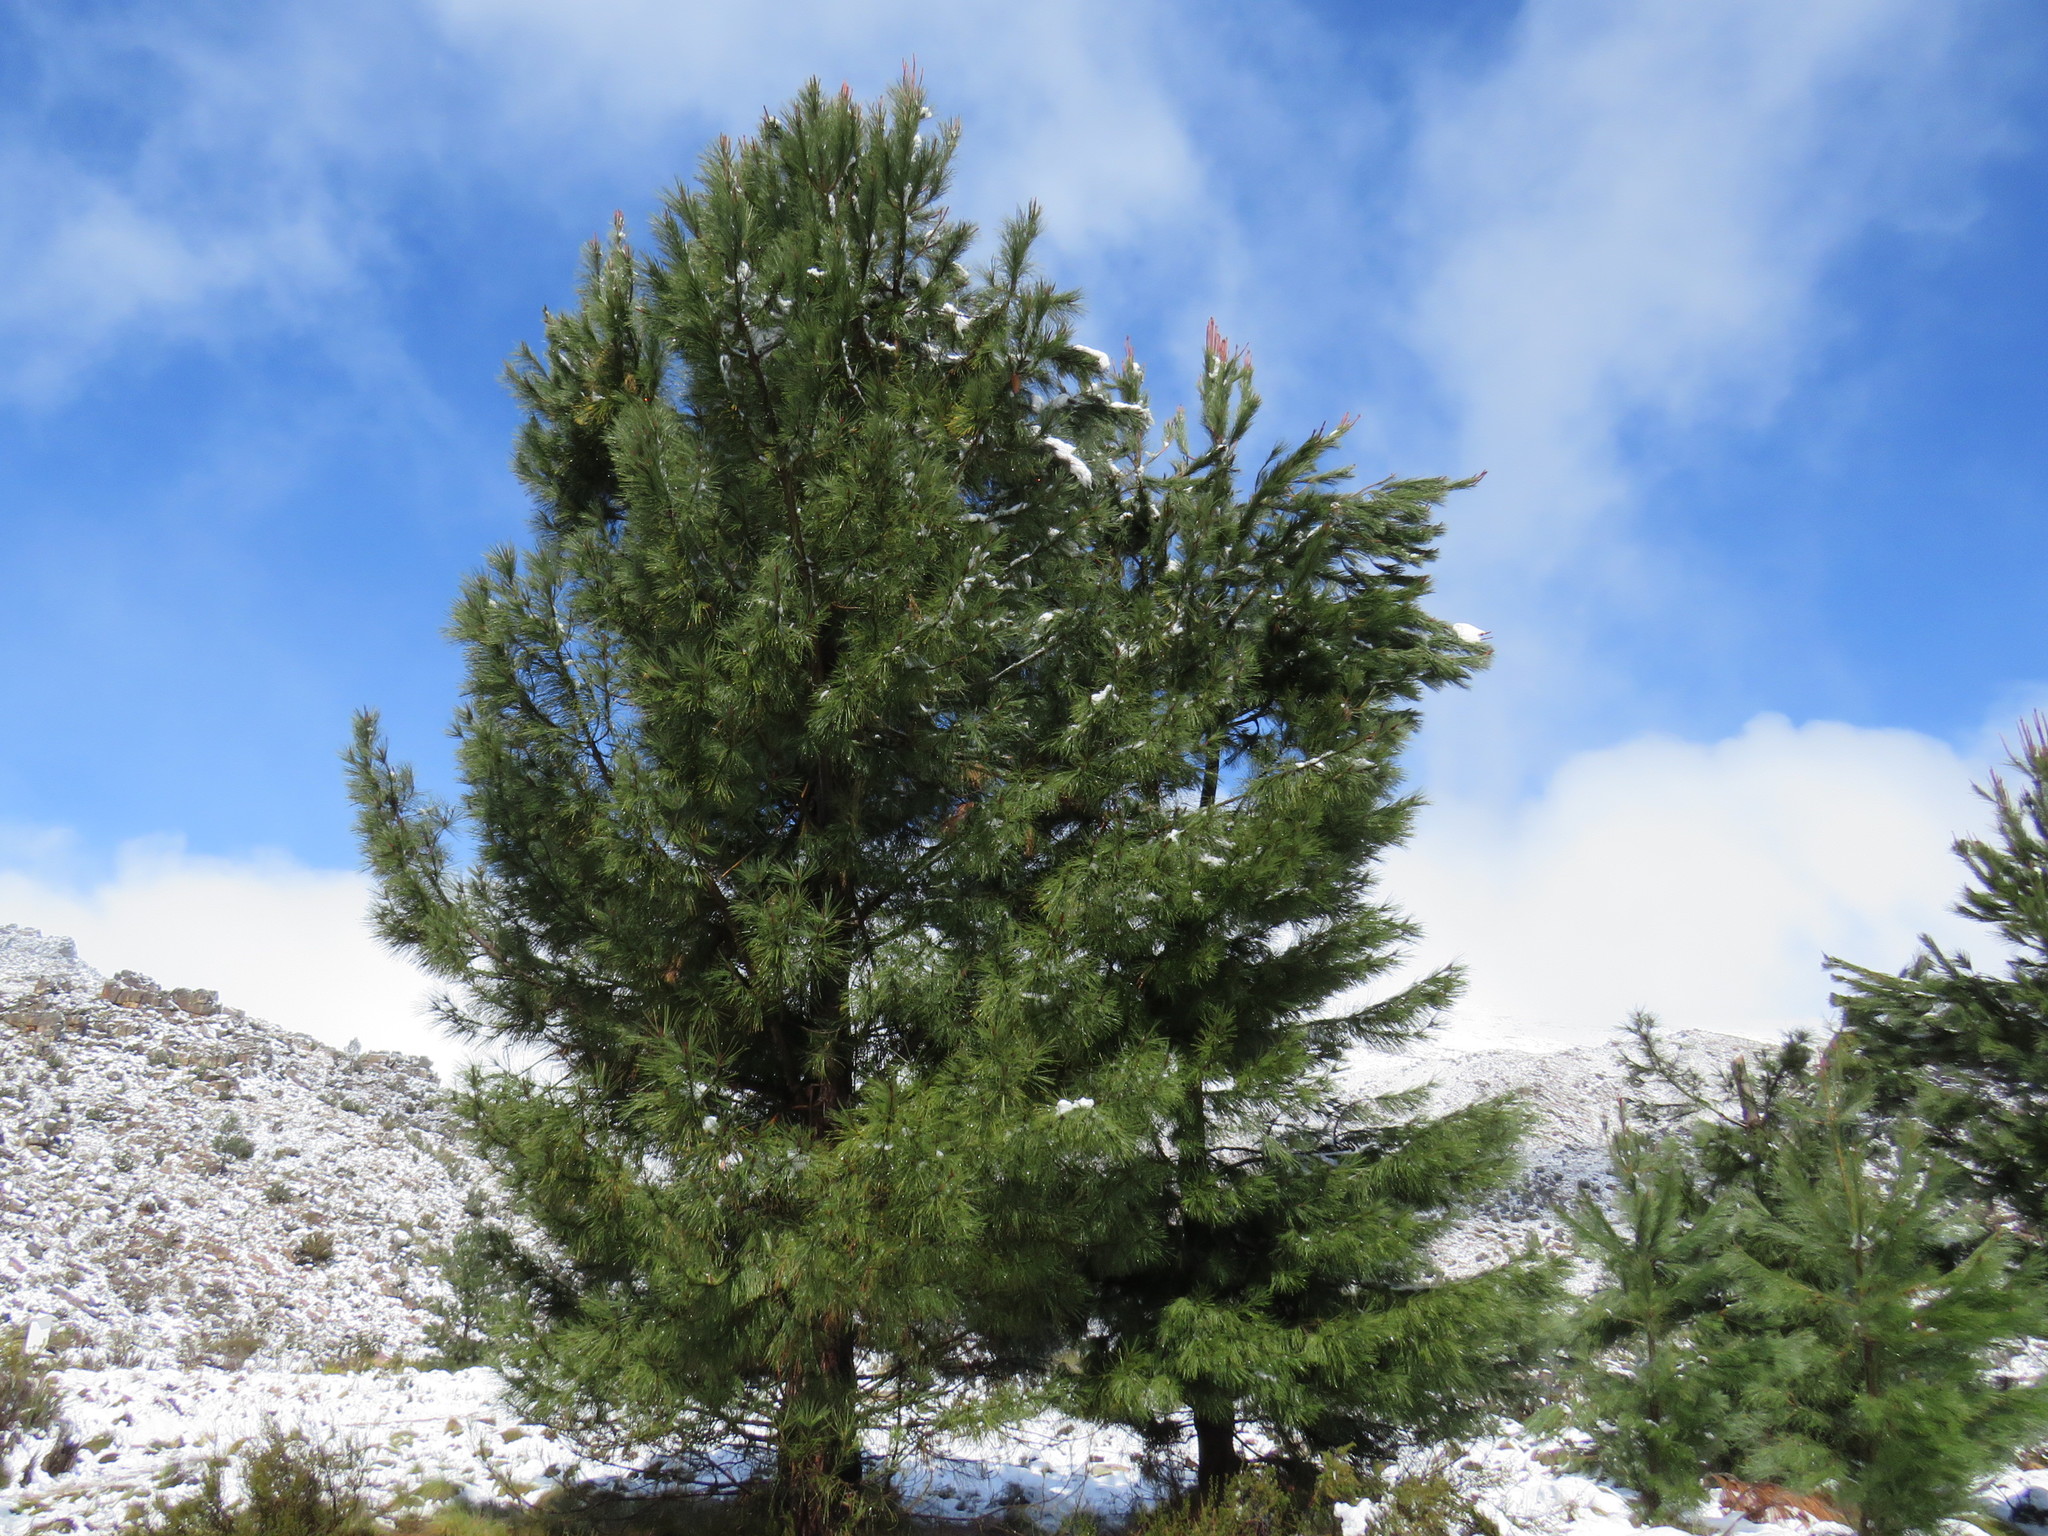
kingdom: Plantae
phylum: Tracheophyta
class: Pinopsida
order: Pinales
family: Pinaceae
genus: Pinus
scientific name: Pinus pinaster
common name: Maritime pine
